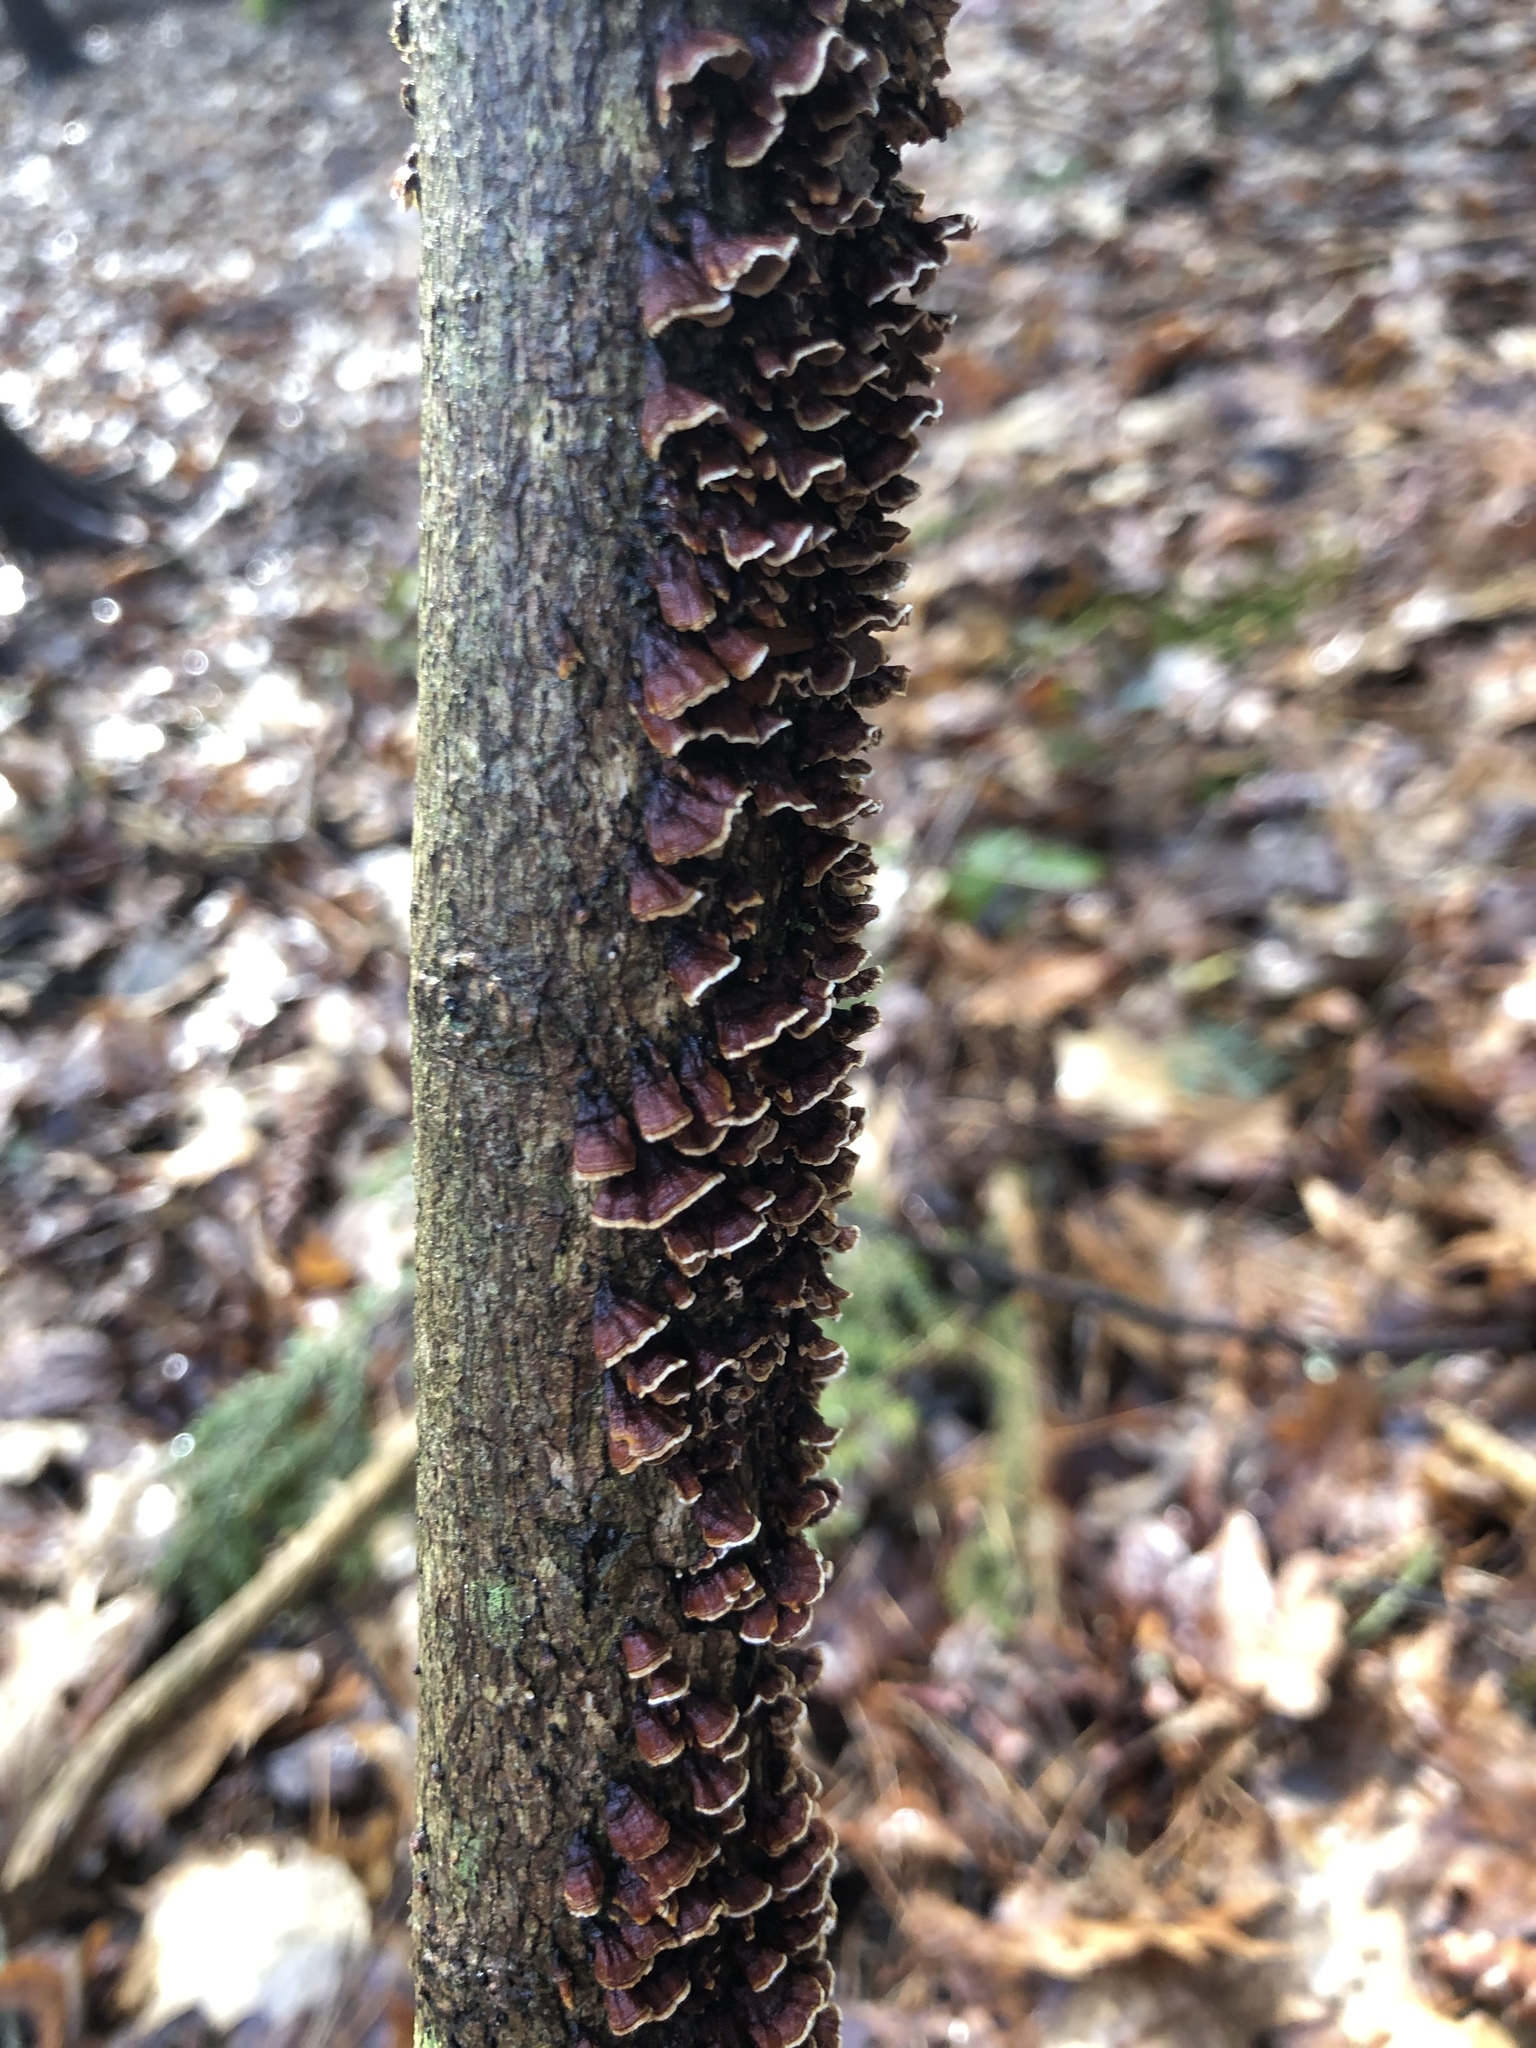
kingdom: Fungi
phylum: Basidiomycota
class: Agaricomycetes
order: Hymenochaetales
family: Hymenochaetaceae
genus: Hydnoporia
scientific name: Hydnoporia tabacina
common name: Willow glue
